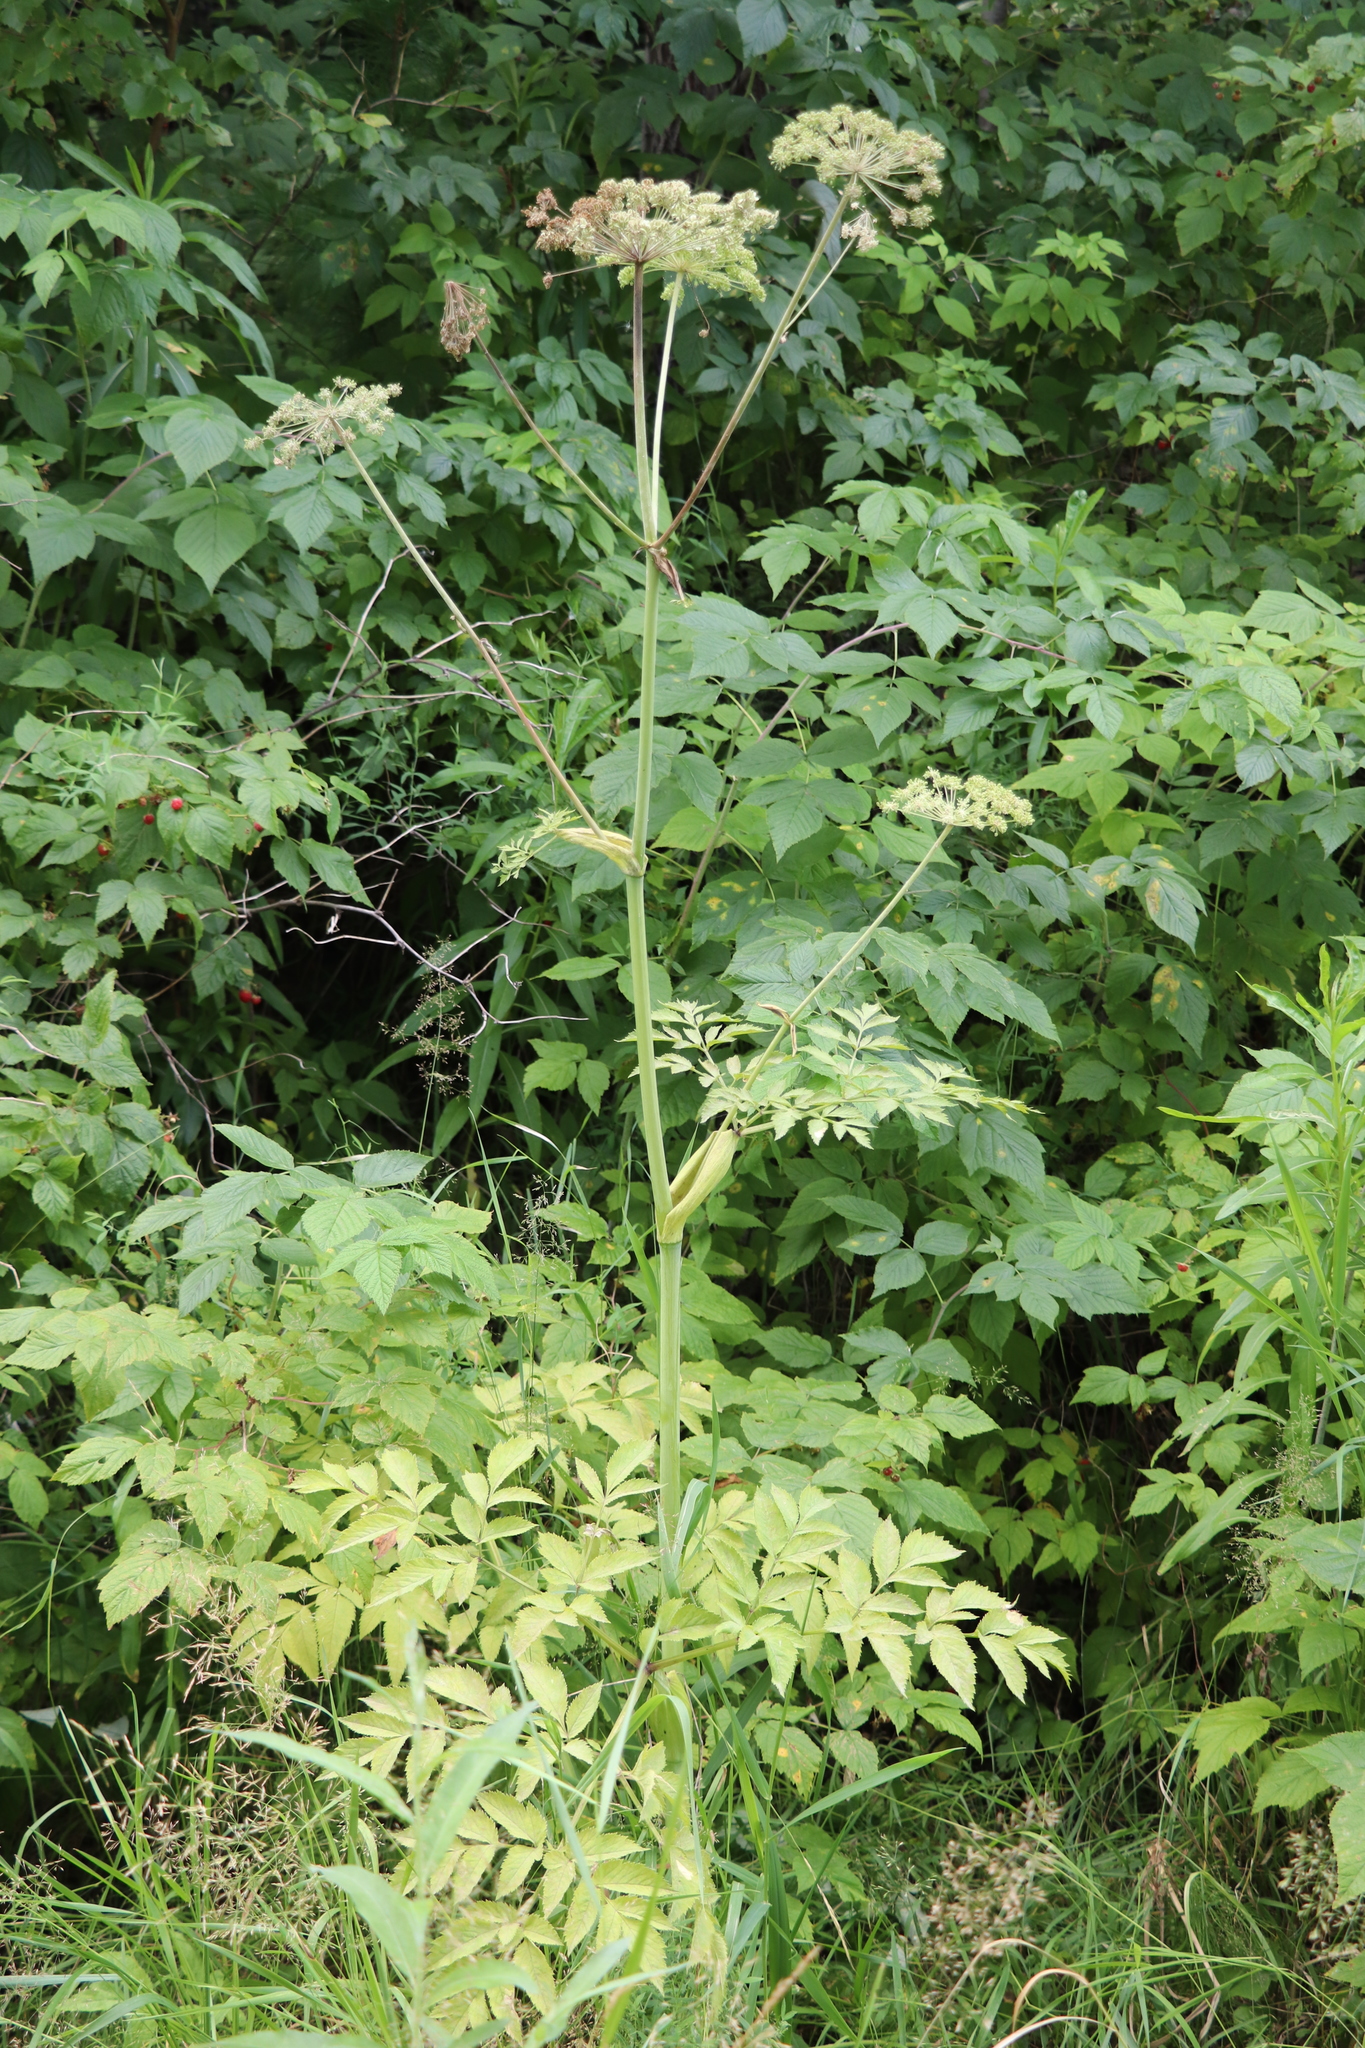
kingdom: Plantae
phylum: Tracheophyta
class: Magnoliopsida
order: Apiales
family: Apiaceae
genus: Angelica
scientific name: Angelica sylvestris
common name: Wild angelica
